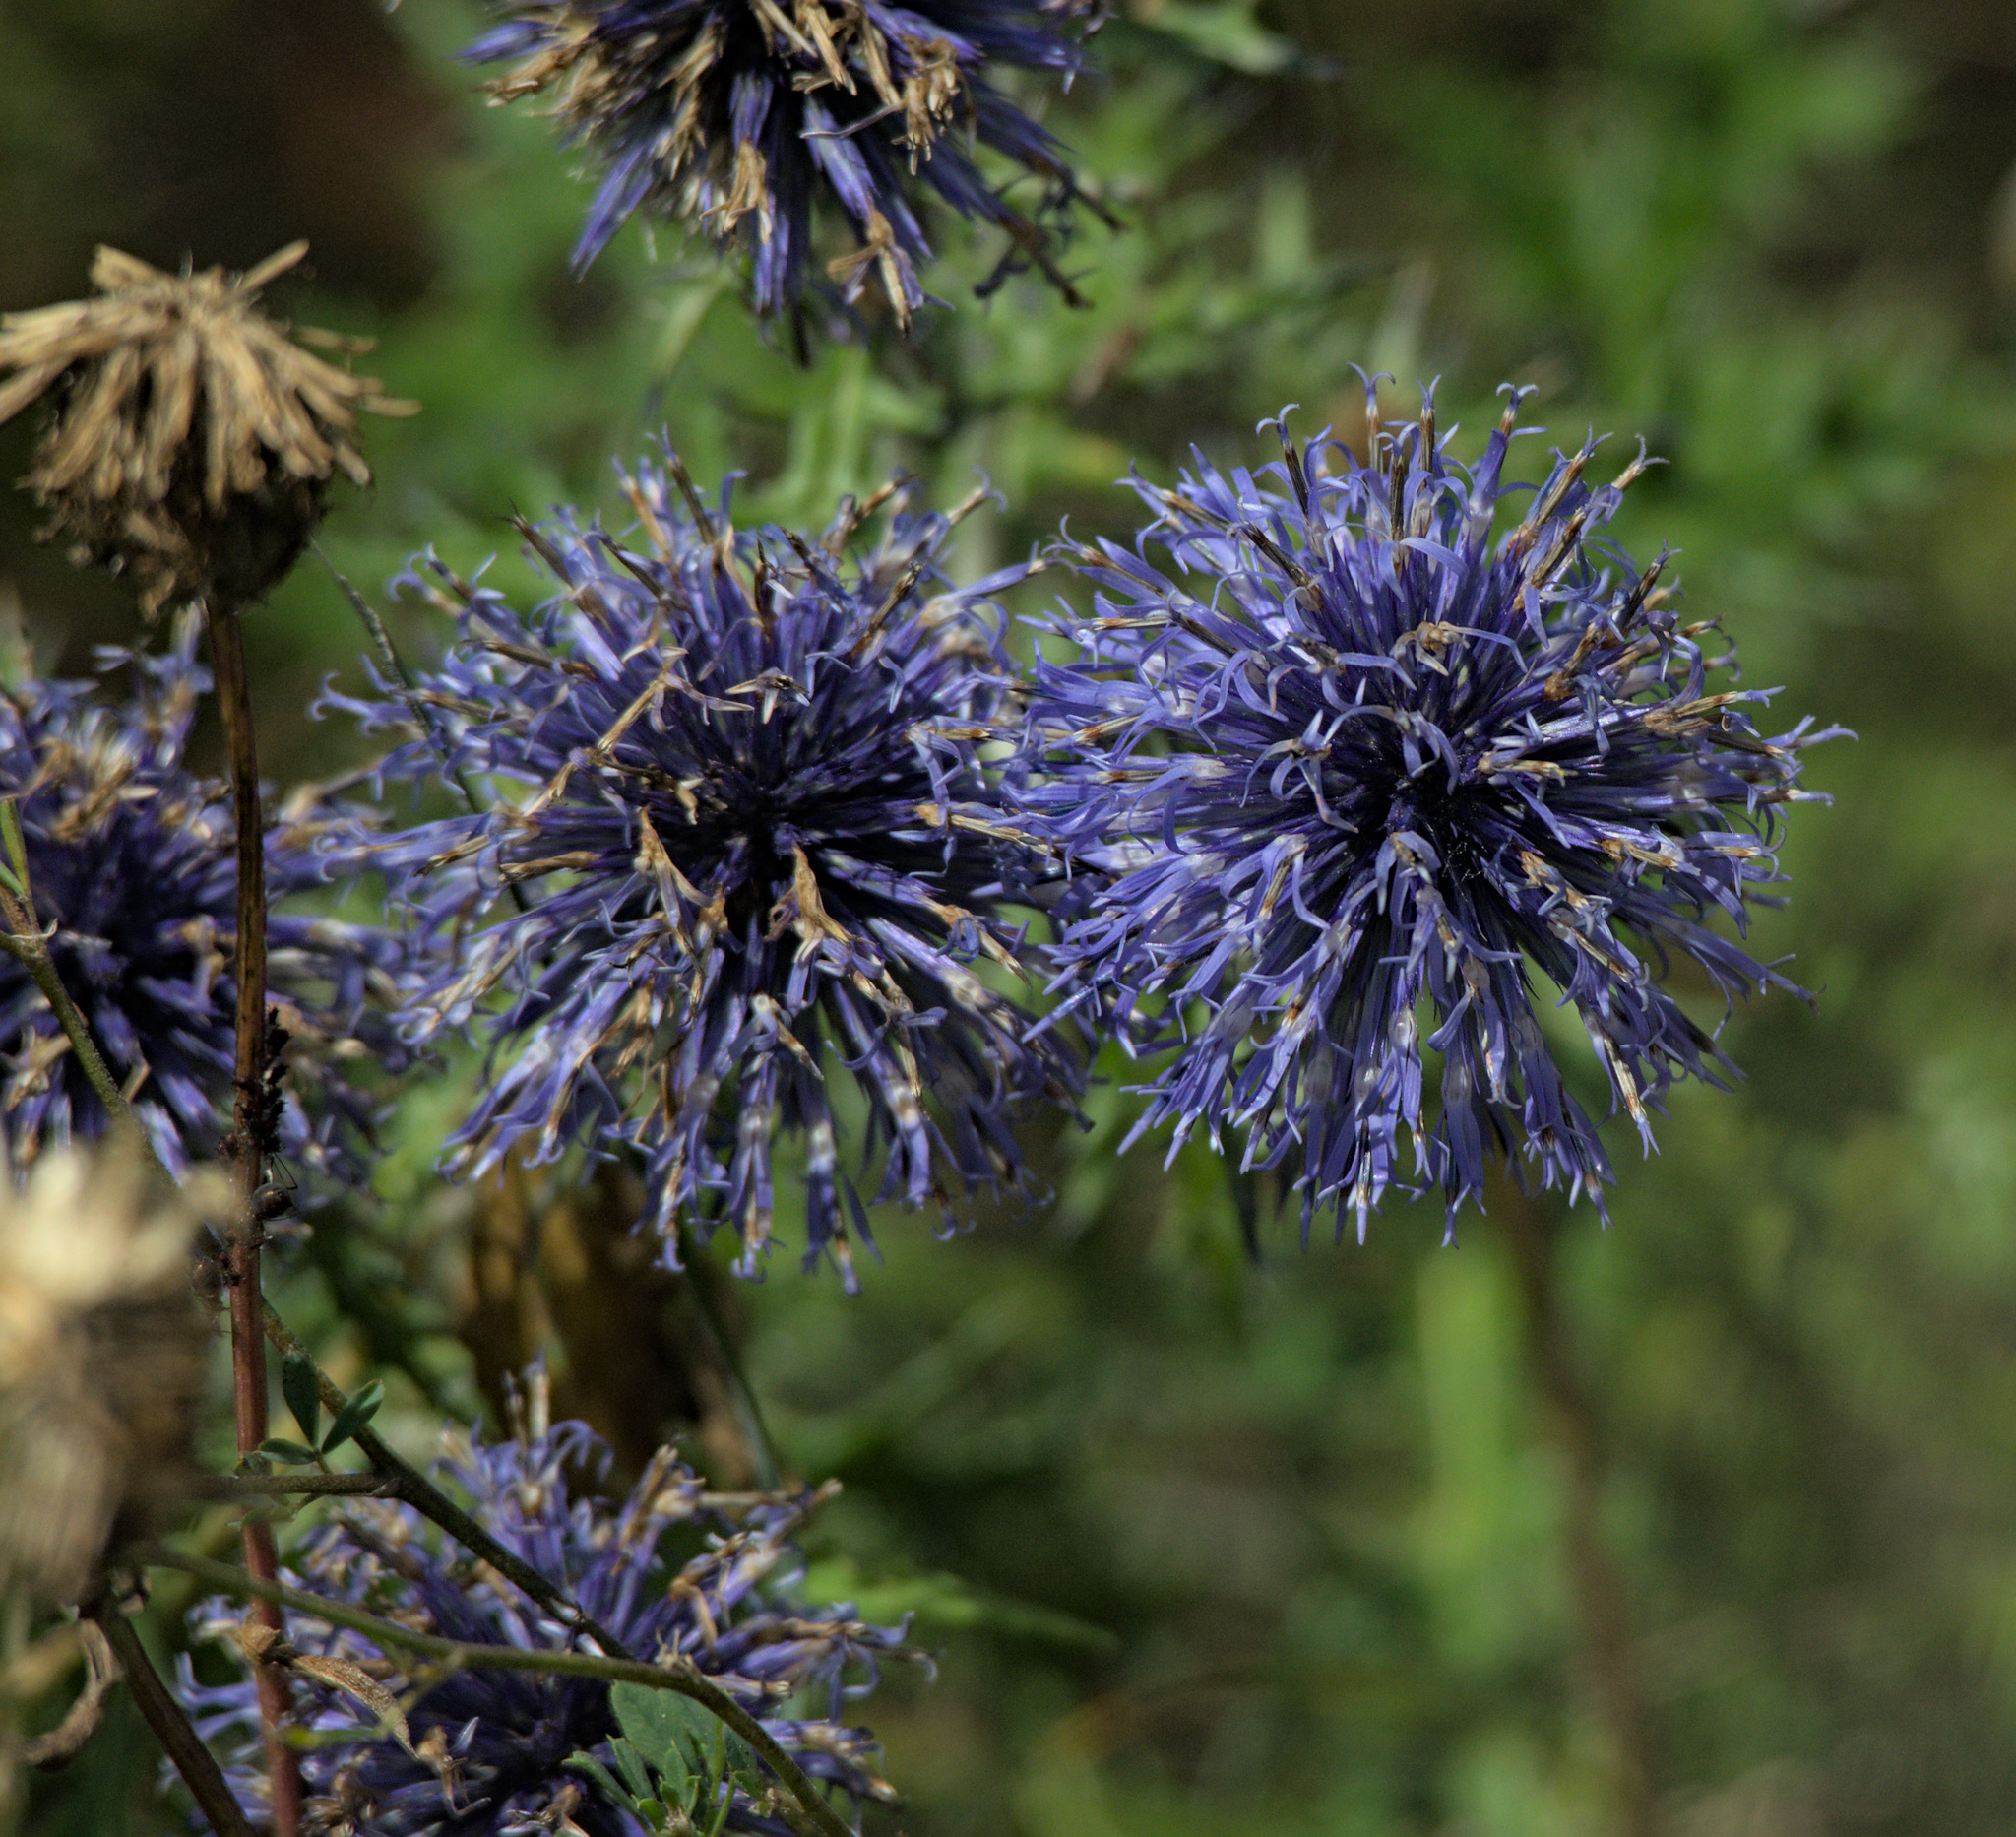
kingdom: Plantae
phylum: Tracheophyta
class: Magnoliopsida
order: Asterales
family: Asteraceae
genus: Echinops
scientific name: Echinops ritro
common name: Globe thistle
